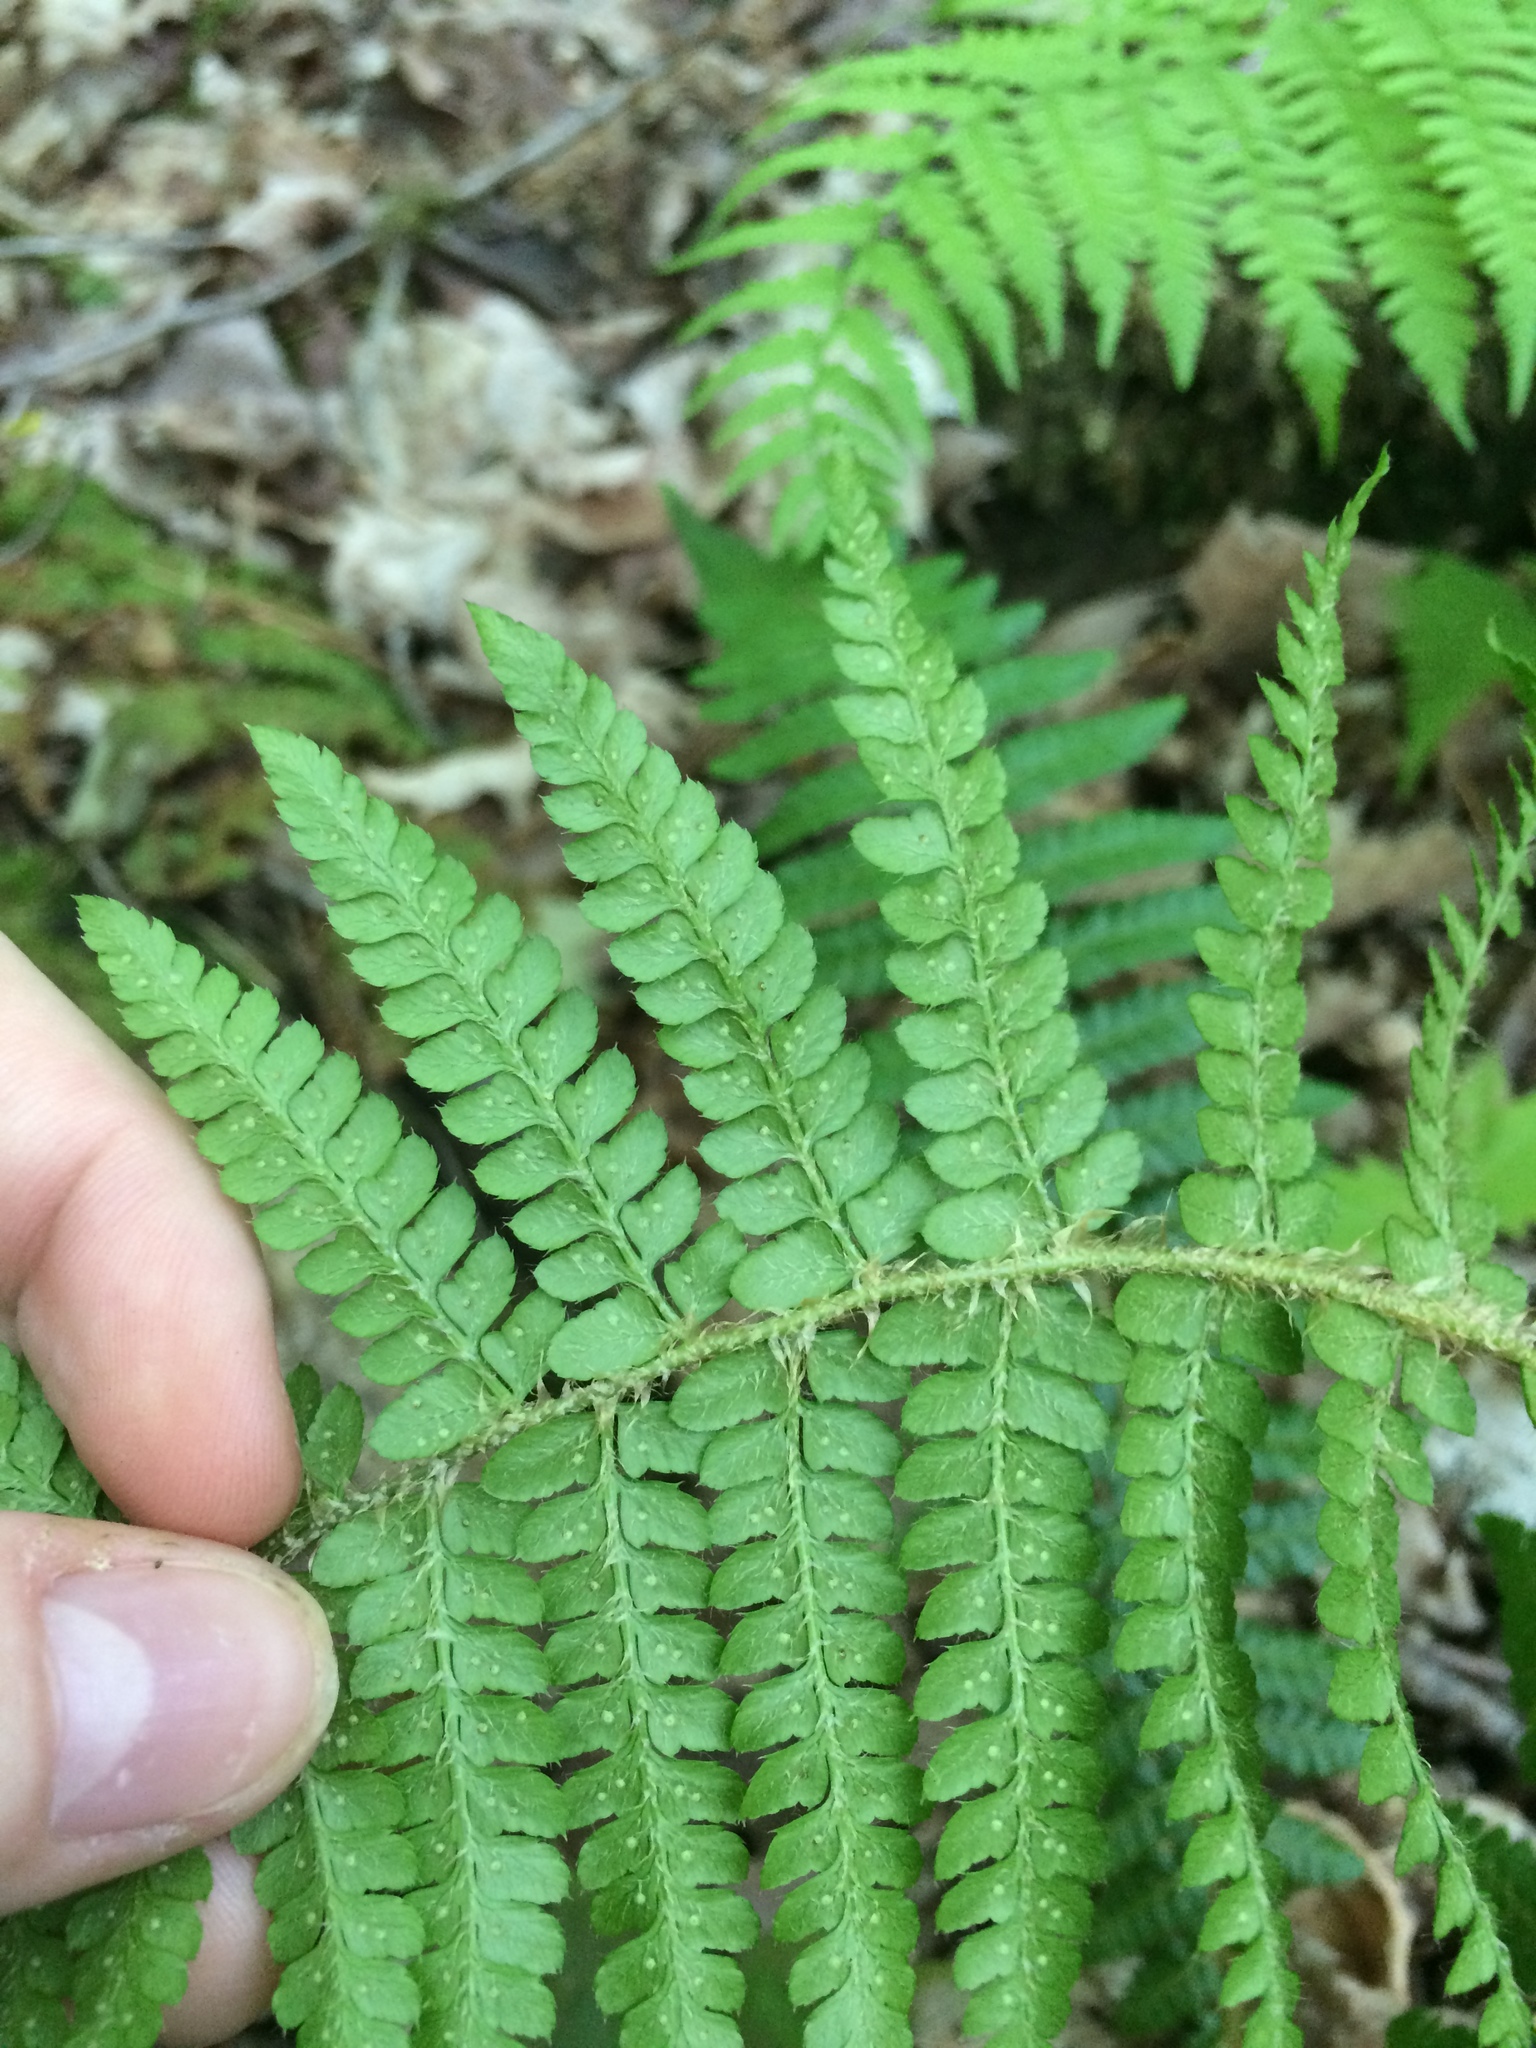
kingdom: Plantae
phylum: Tracheophyta
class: Polypodiopsida
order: Polypodiales
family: Dryopteridaceae
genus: Polystichum
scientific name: Polystichum braunii
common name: Braun's holly fern
